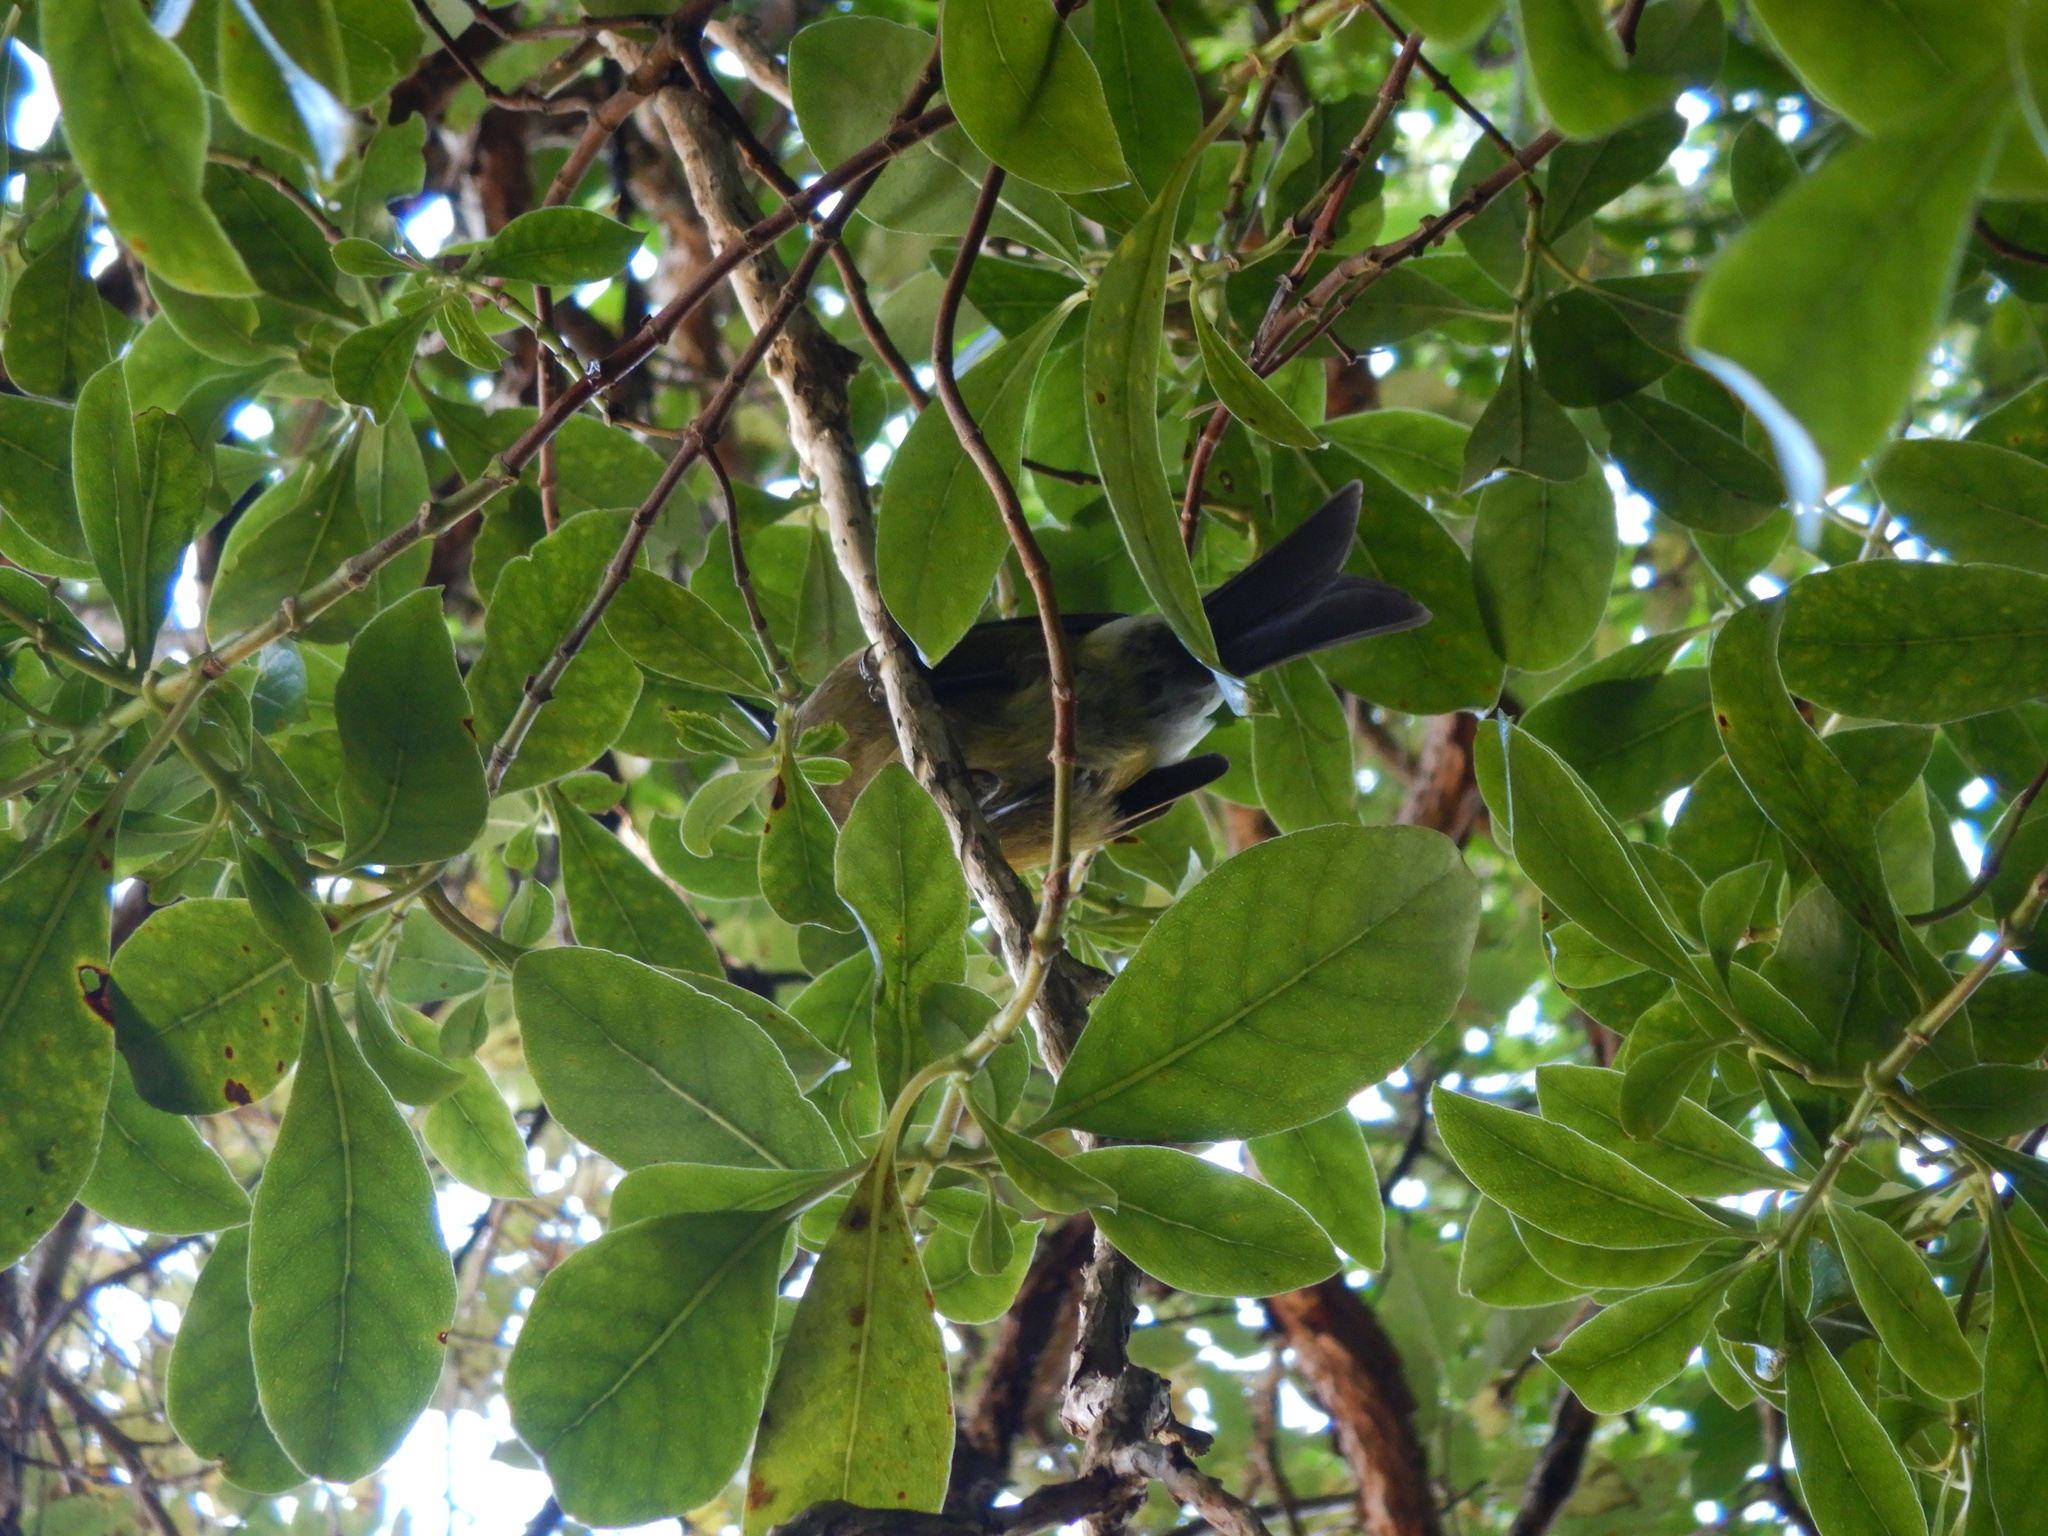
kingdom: Animalia
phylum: Chordata
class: Aves
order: Passeriformes
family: Meliphagidae
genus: Anthornis
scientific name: Anthornis melanura
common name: New zealand bellbird
